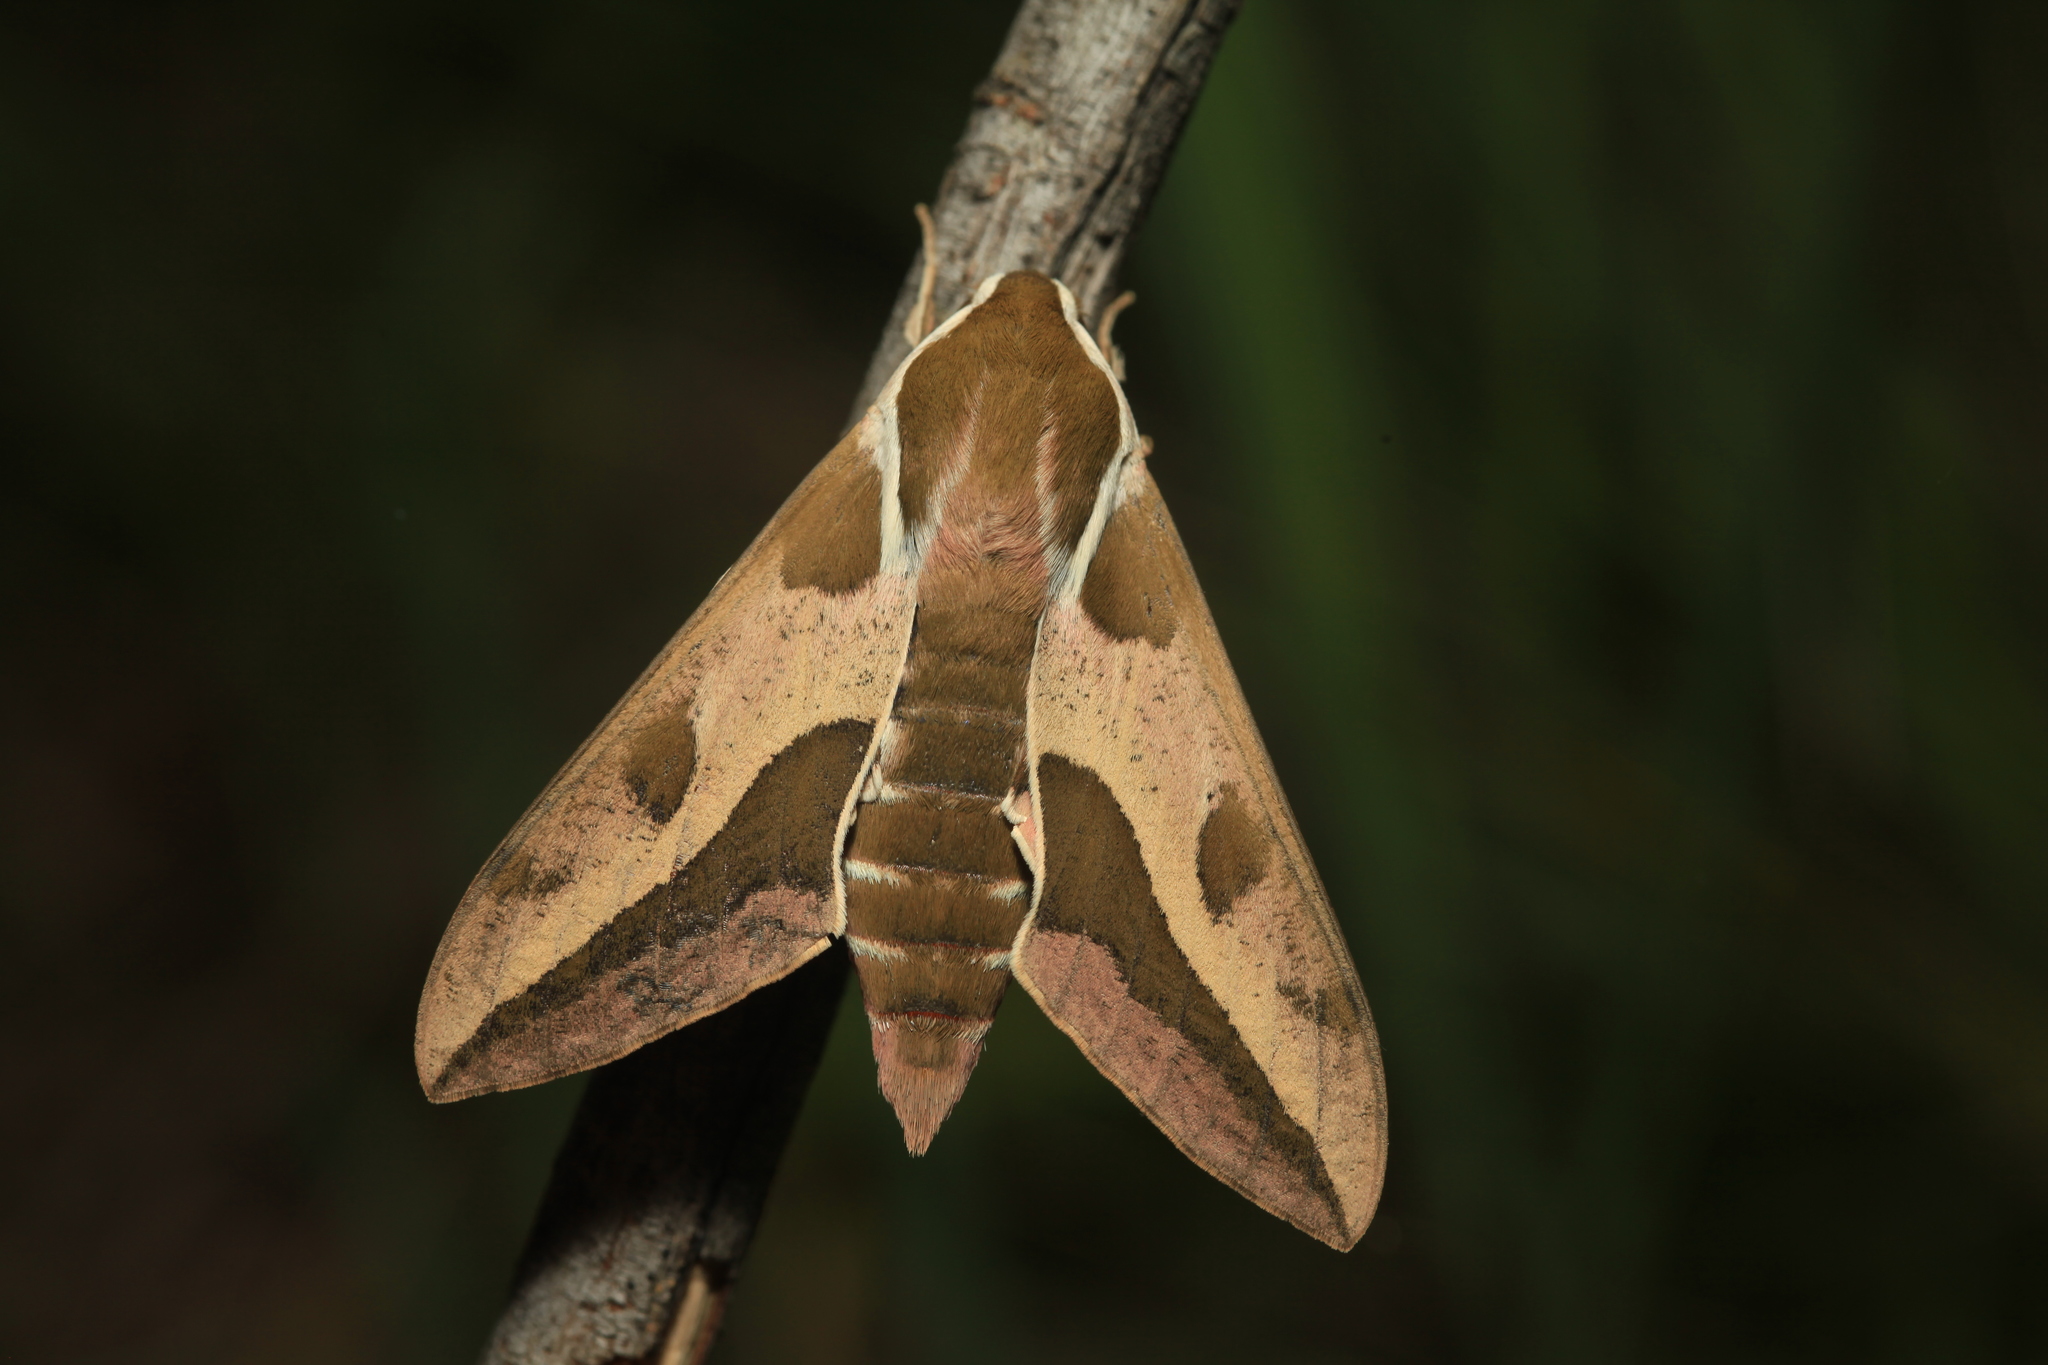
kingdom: Animalia
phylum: Arthropoda
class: Insecta
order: Lepidoptera
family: Sphingidae
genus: Hyles
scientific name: Hyles euphorbiae
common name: Spurge hawk-moth
